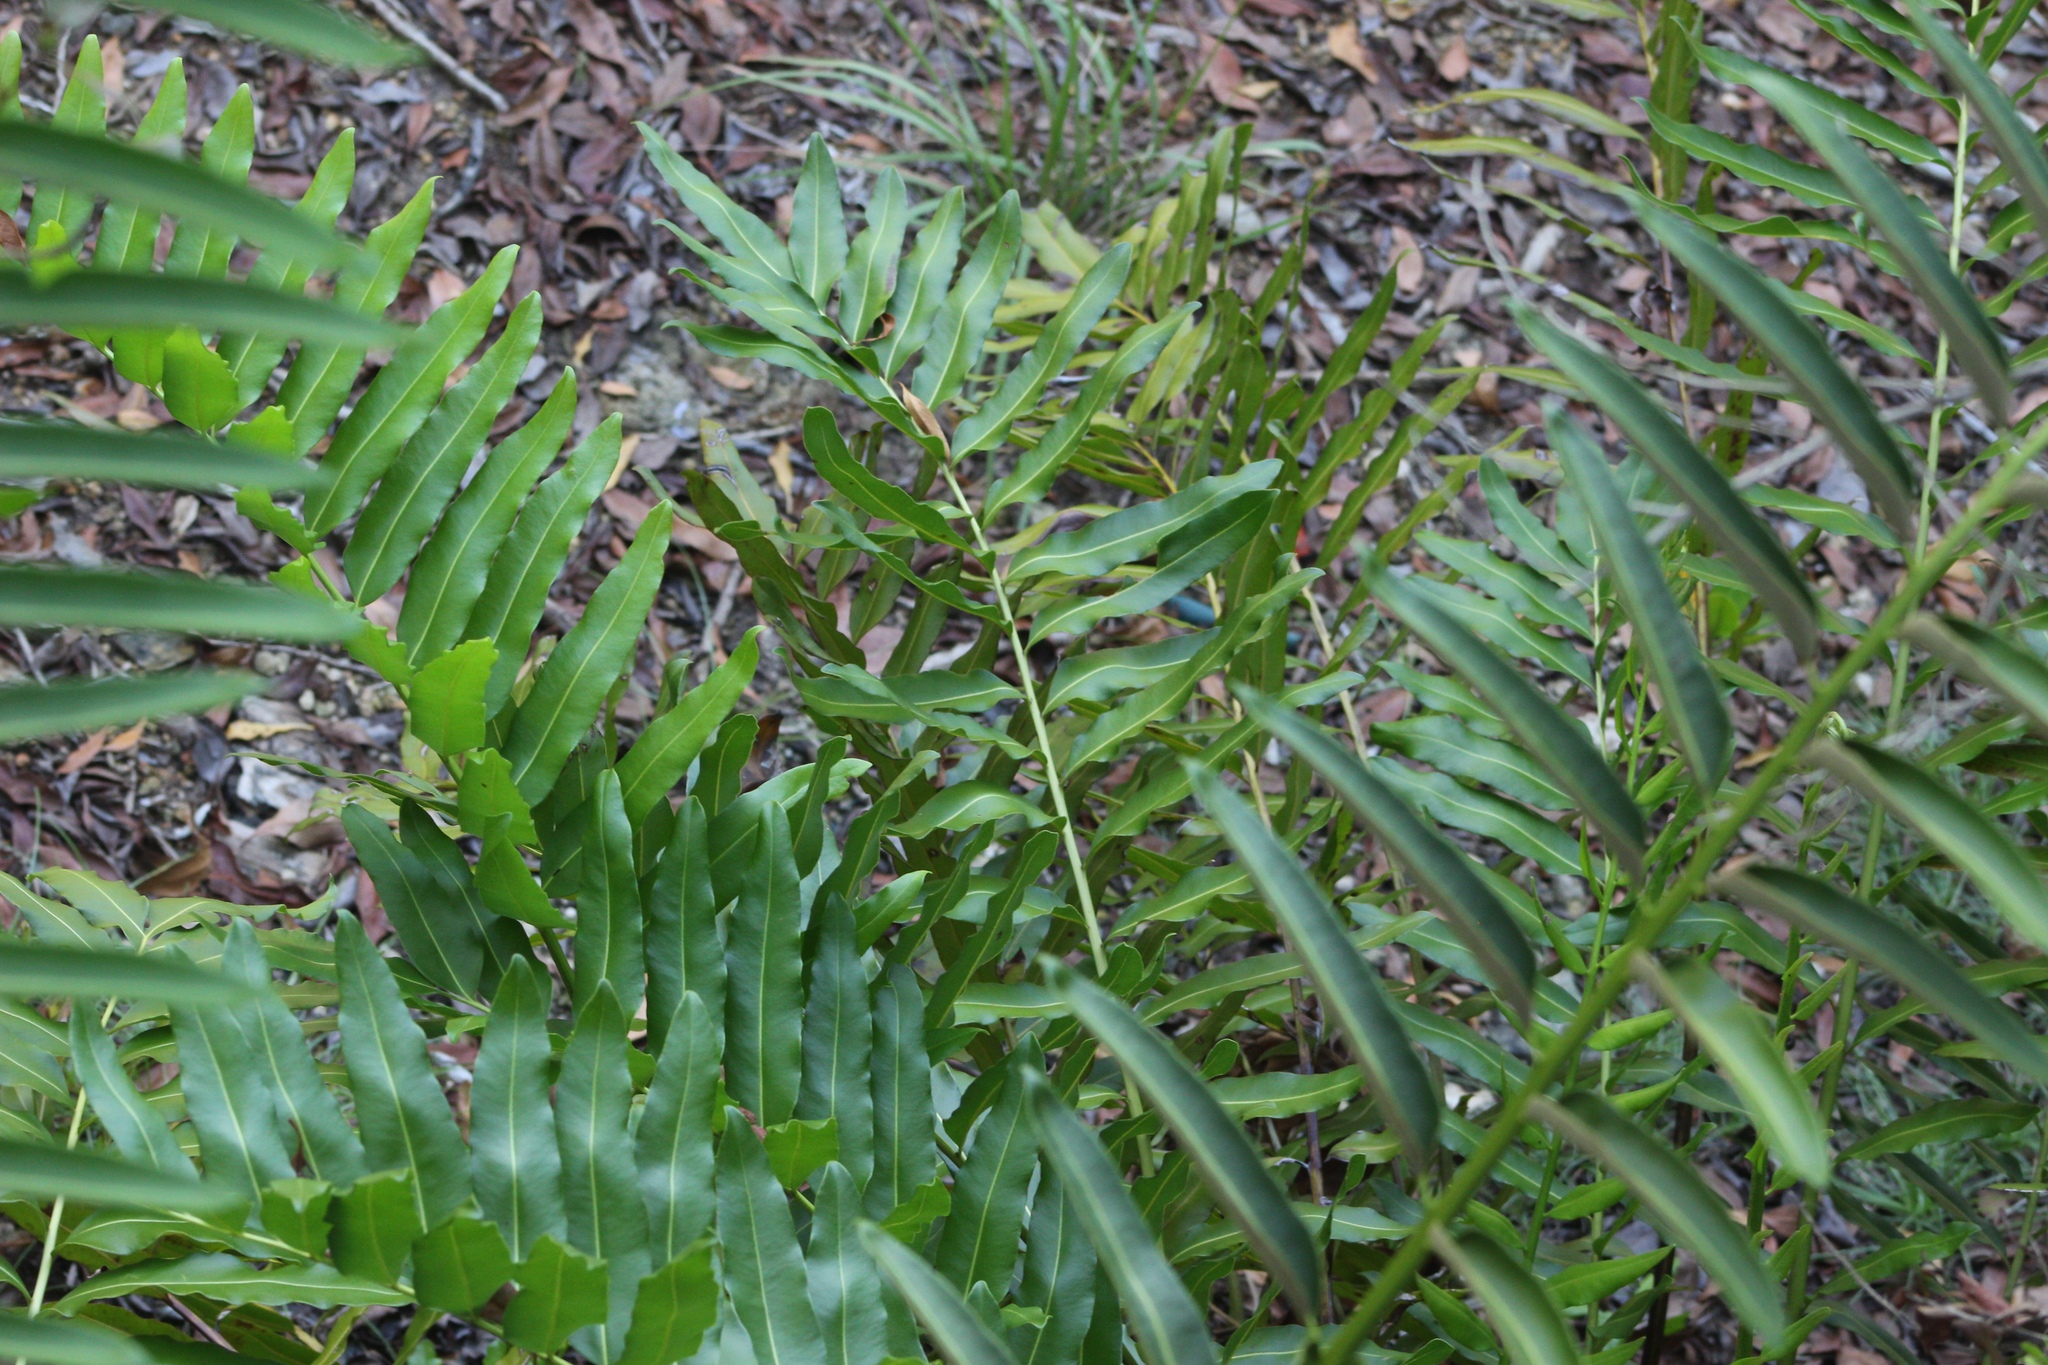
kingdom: Plantae
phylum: Tracheophyta
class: Polypodiopsida
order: Polypodiales
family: Pteridaceae
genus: Acrostichum
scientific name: Acrostichum danaeifolium
